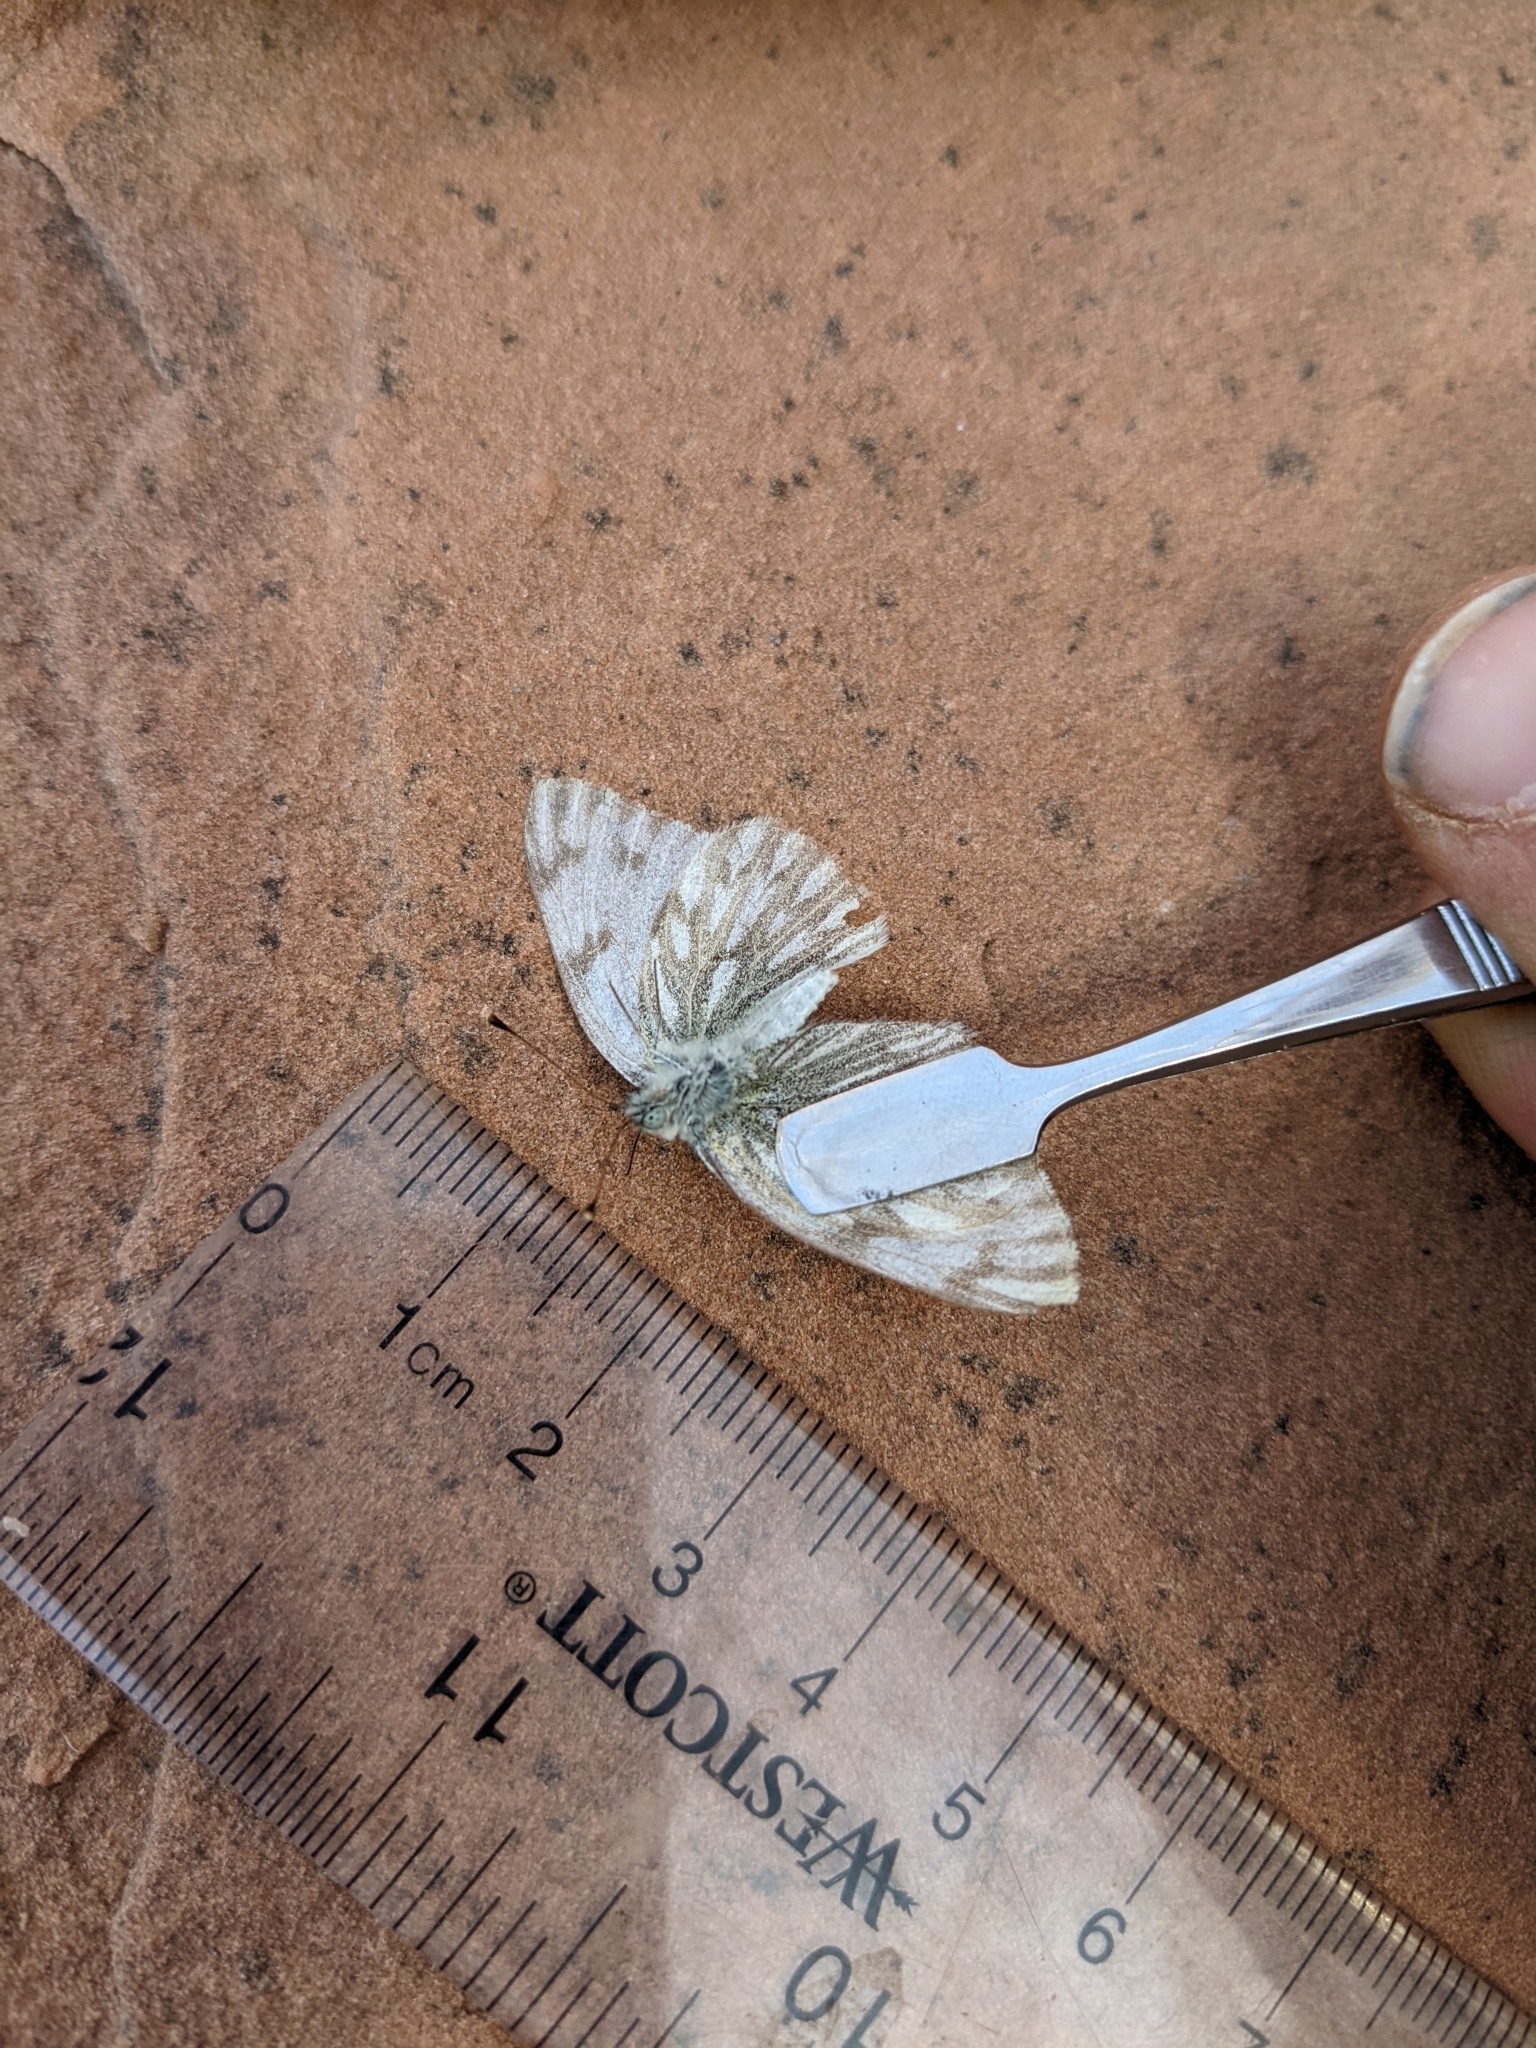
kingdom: Animalia
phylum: Arthropoda
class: Insecta
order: Lepidoptera
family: Pieridae
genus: Pontia
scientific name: Pontia protodice
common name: Checkered white
